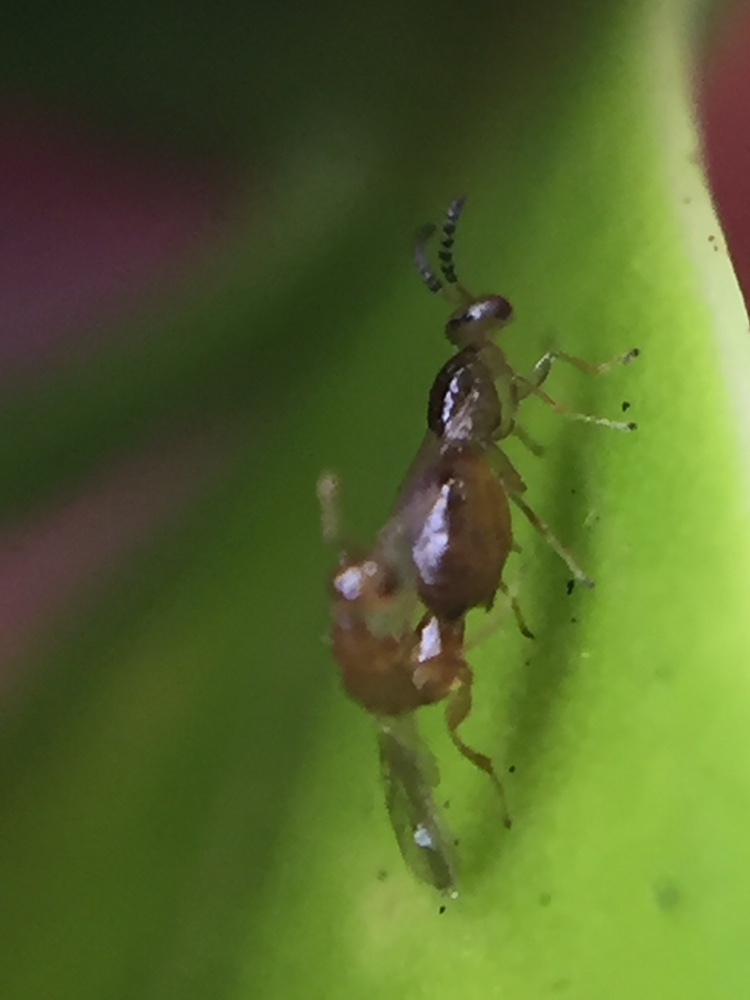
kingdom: Animalia
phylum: Arthropoda
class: Insecta
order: Hymenoptera
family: Agaonidae
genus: Odontofroggatia
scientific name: Odontofroggatia galili
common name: Fig wasp
